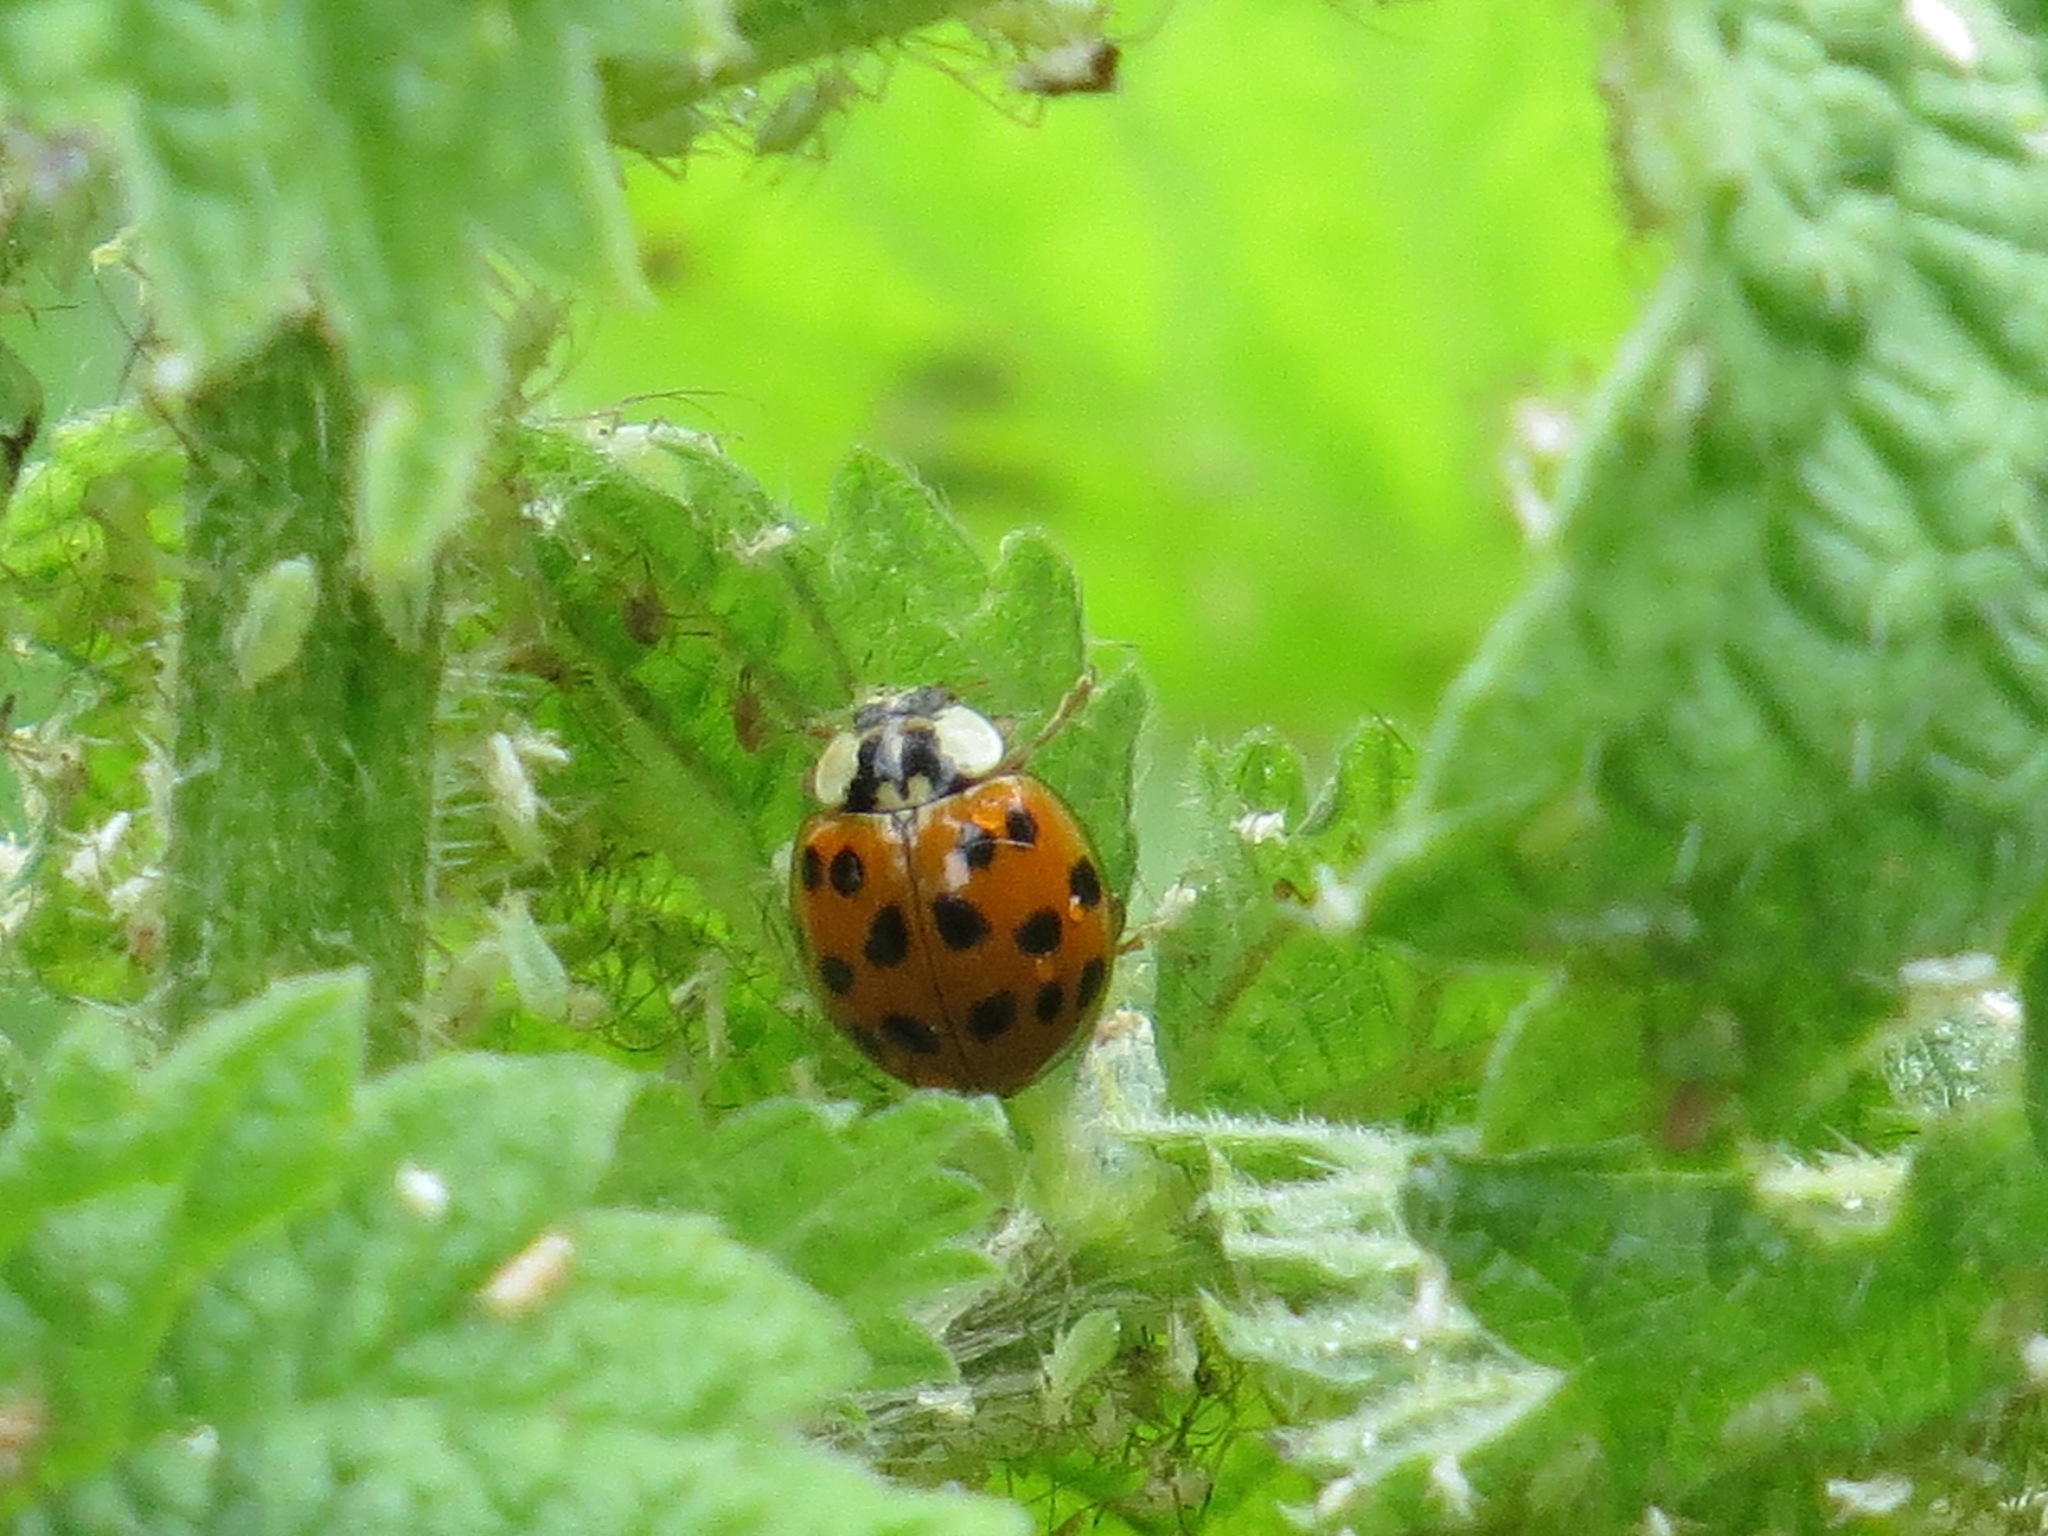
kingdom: Animalia
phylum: Arthropoda
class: Insecta
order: Coleoptera
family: Coccinellidae
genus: Harmonia
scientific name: Harmonia axyridis
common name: Harlequin ladybird
